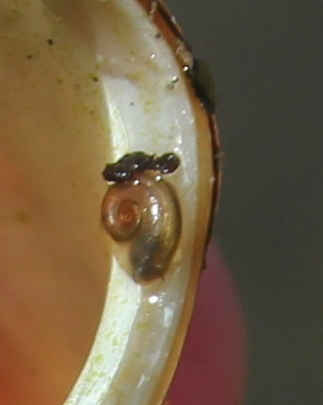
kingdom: Animalia
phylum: Mollusca
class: Gastropoda
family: Planorbidae
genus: Gyraulus
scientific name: Gyraulus parvus
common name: Ash gyro
